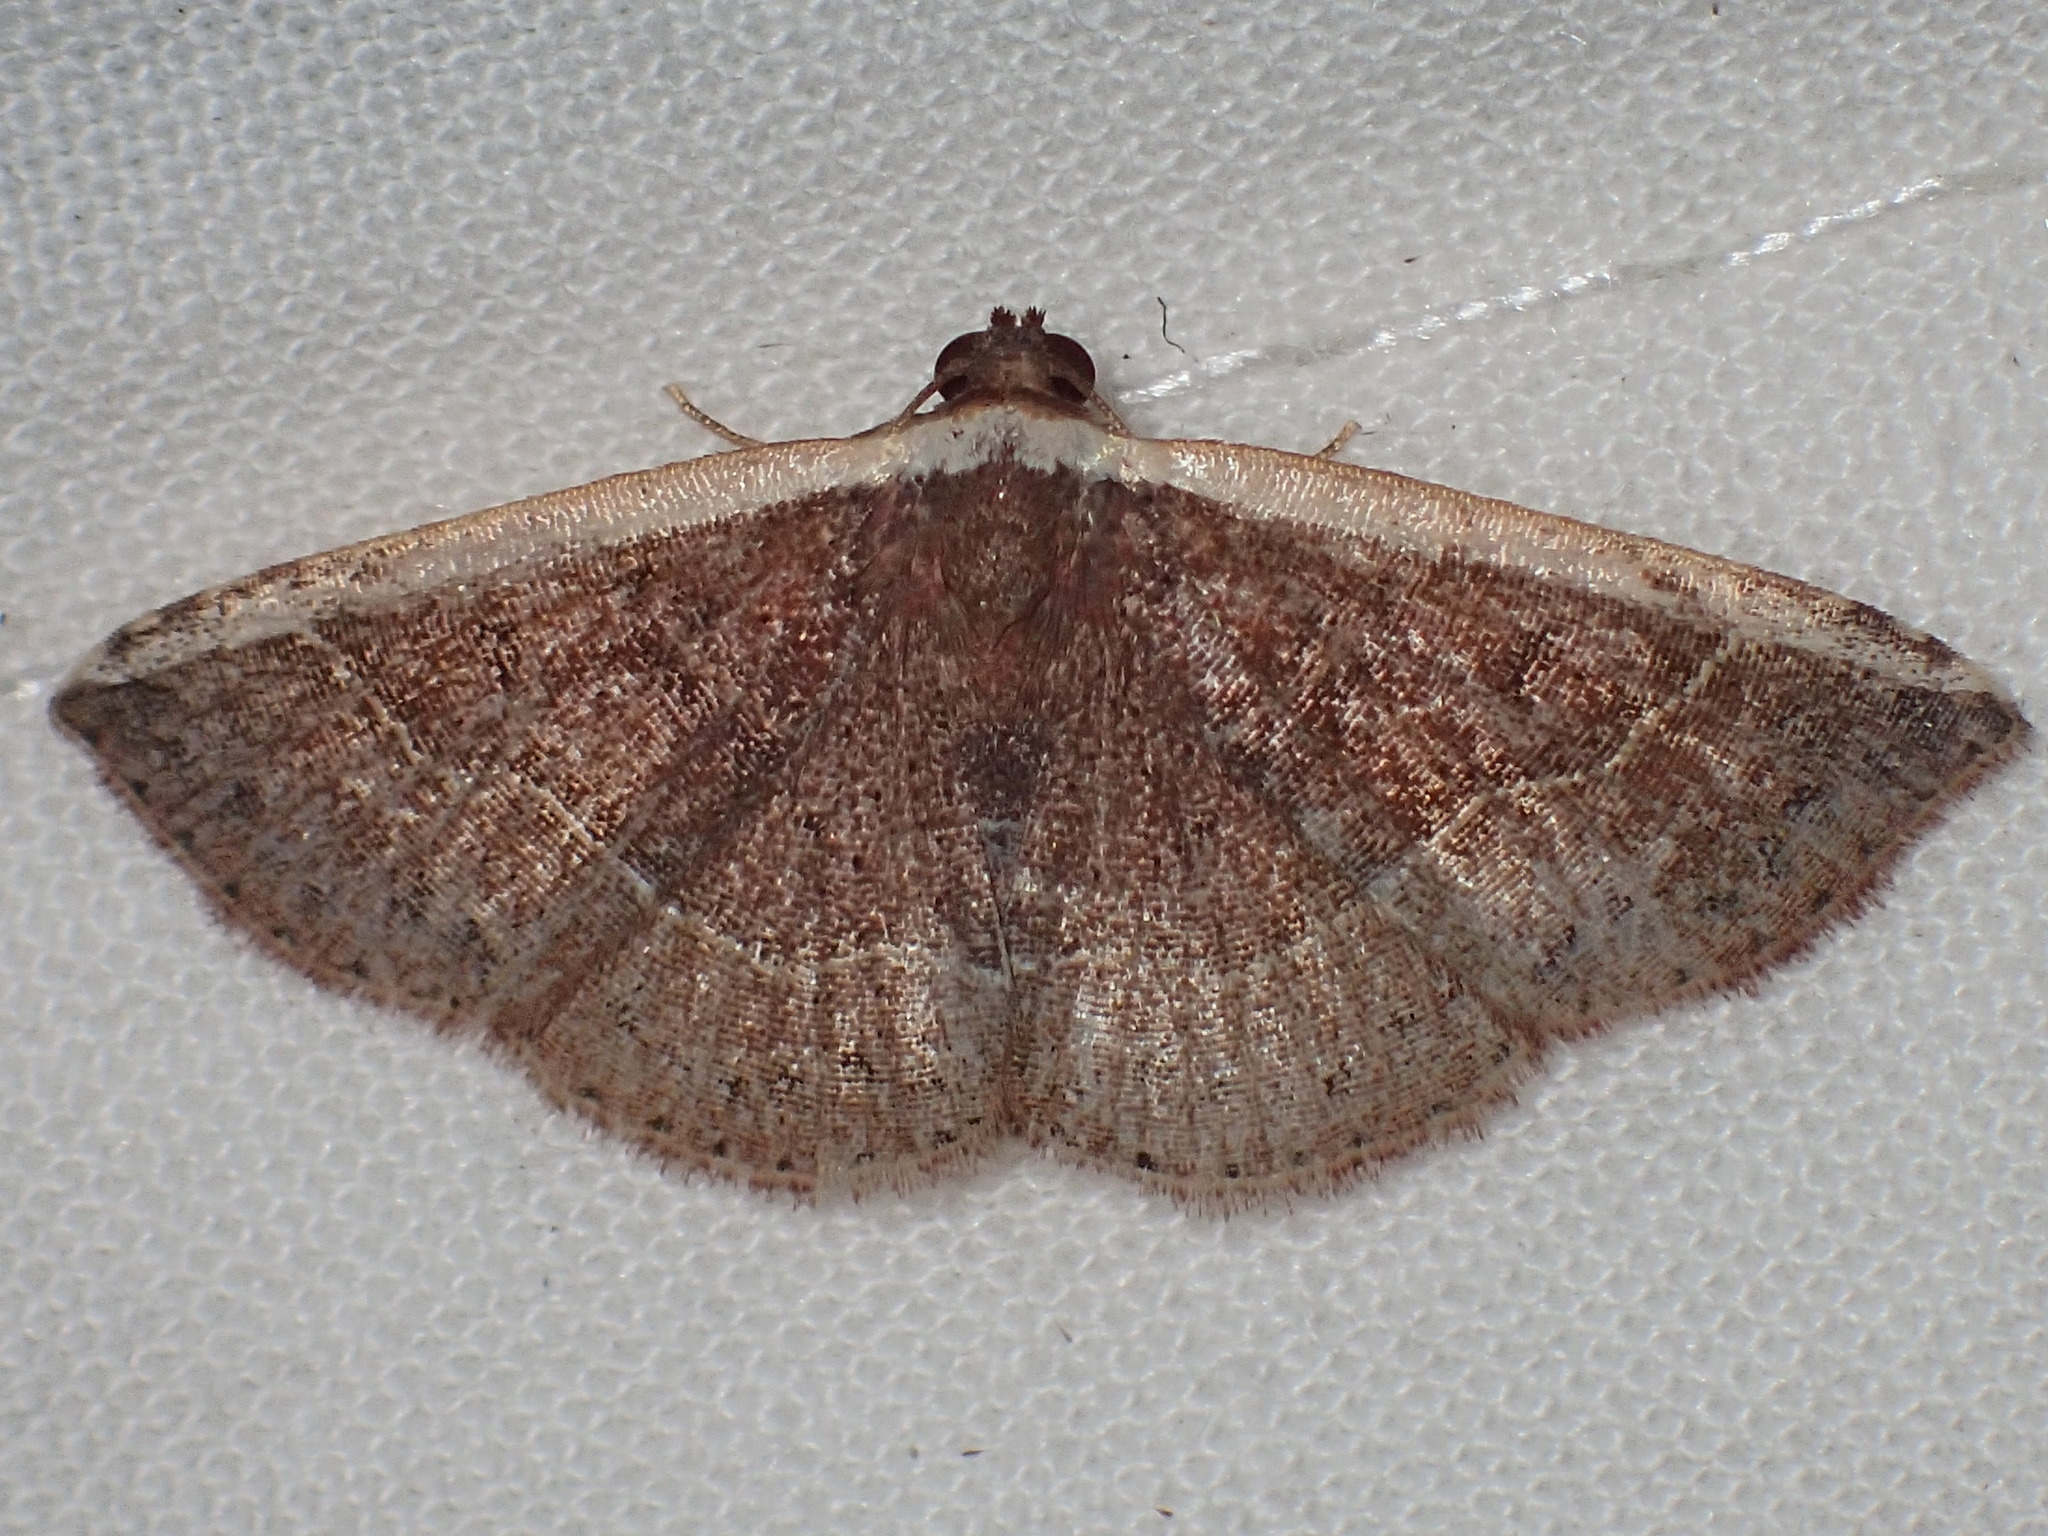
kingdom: Animalia
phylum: Arthropoda
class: Insecta
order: Lepidoptera
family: Noctuidae
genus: Ozarba
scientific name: Ozarba albocostaliata
